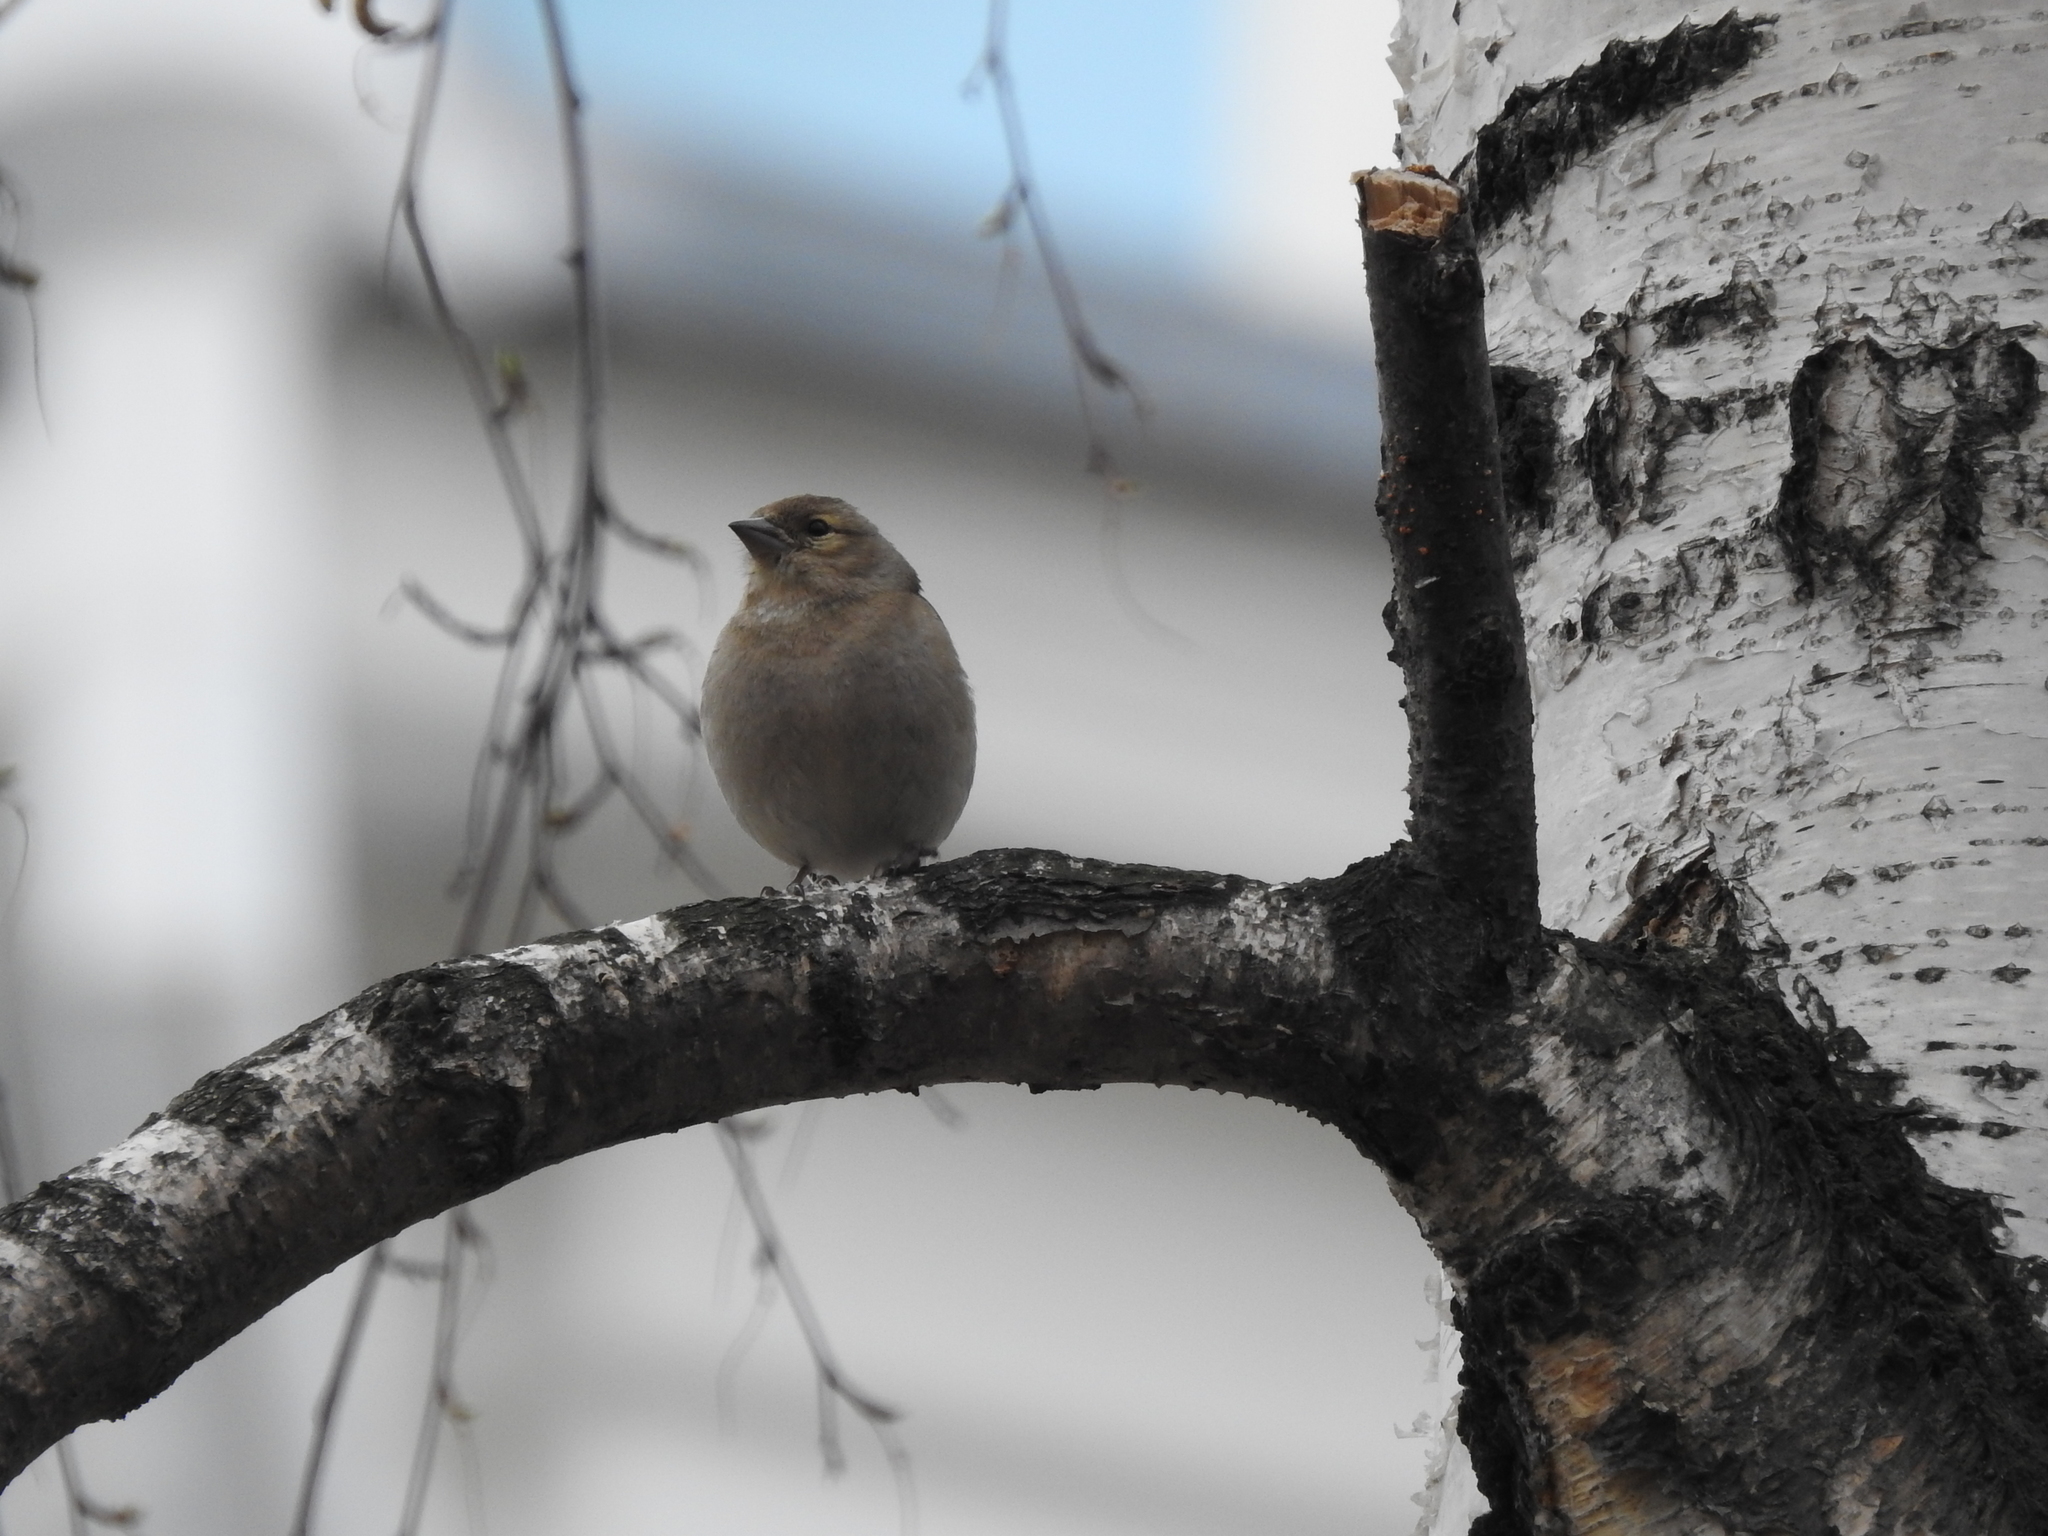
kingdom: Animalia
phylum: Chordata
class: Aves
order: Passeriformes
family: Fringillidae
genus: Fringilla
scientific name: Fringilla coelebs
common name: Common chaffinch
